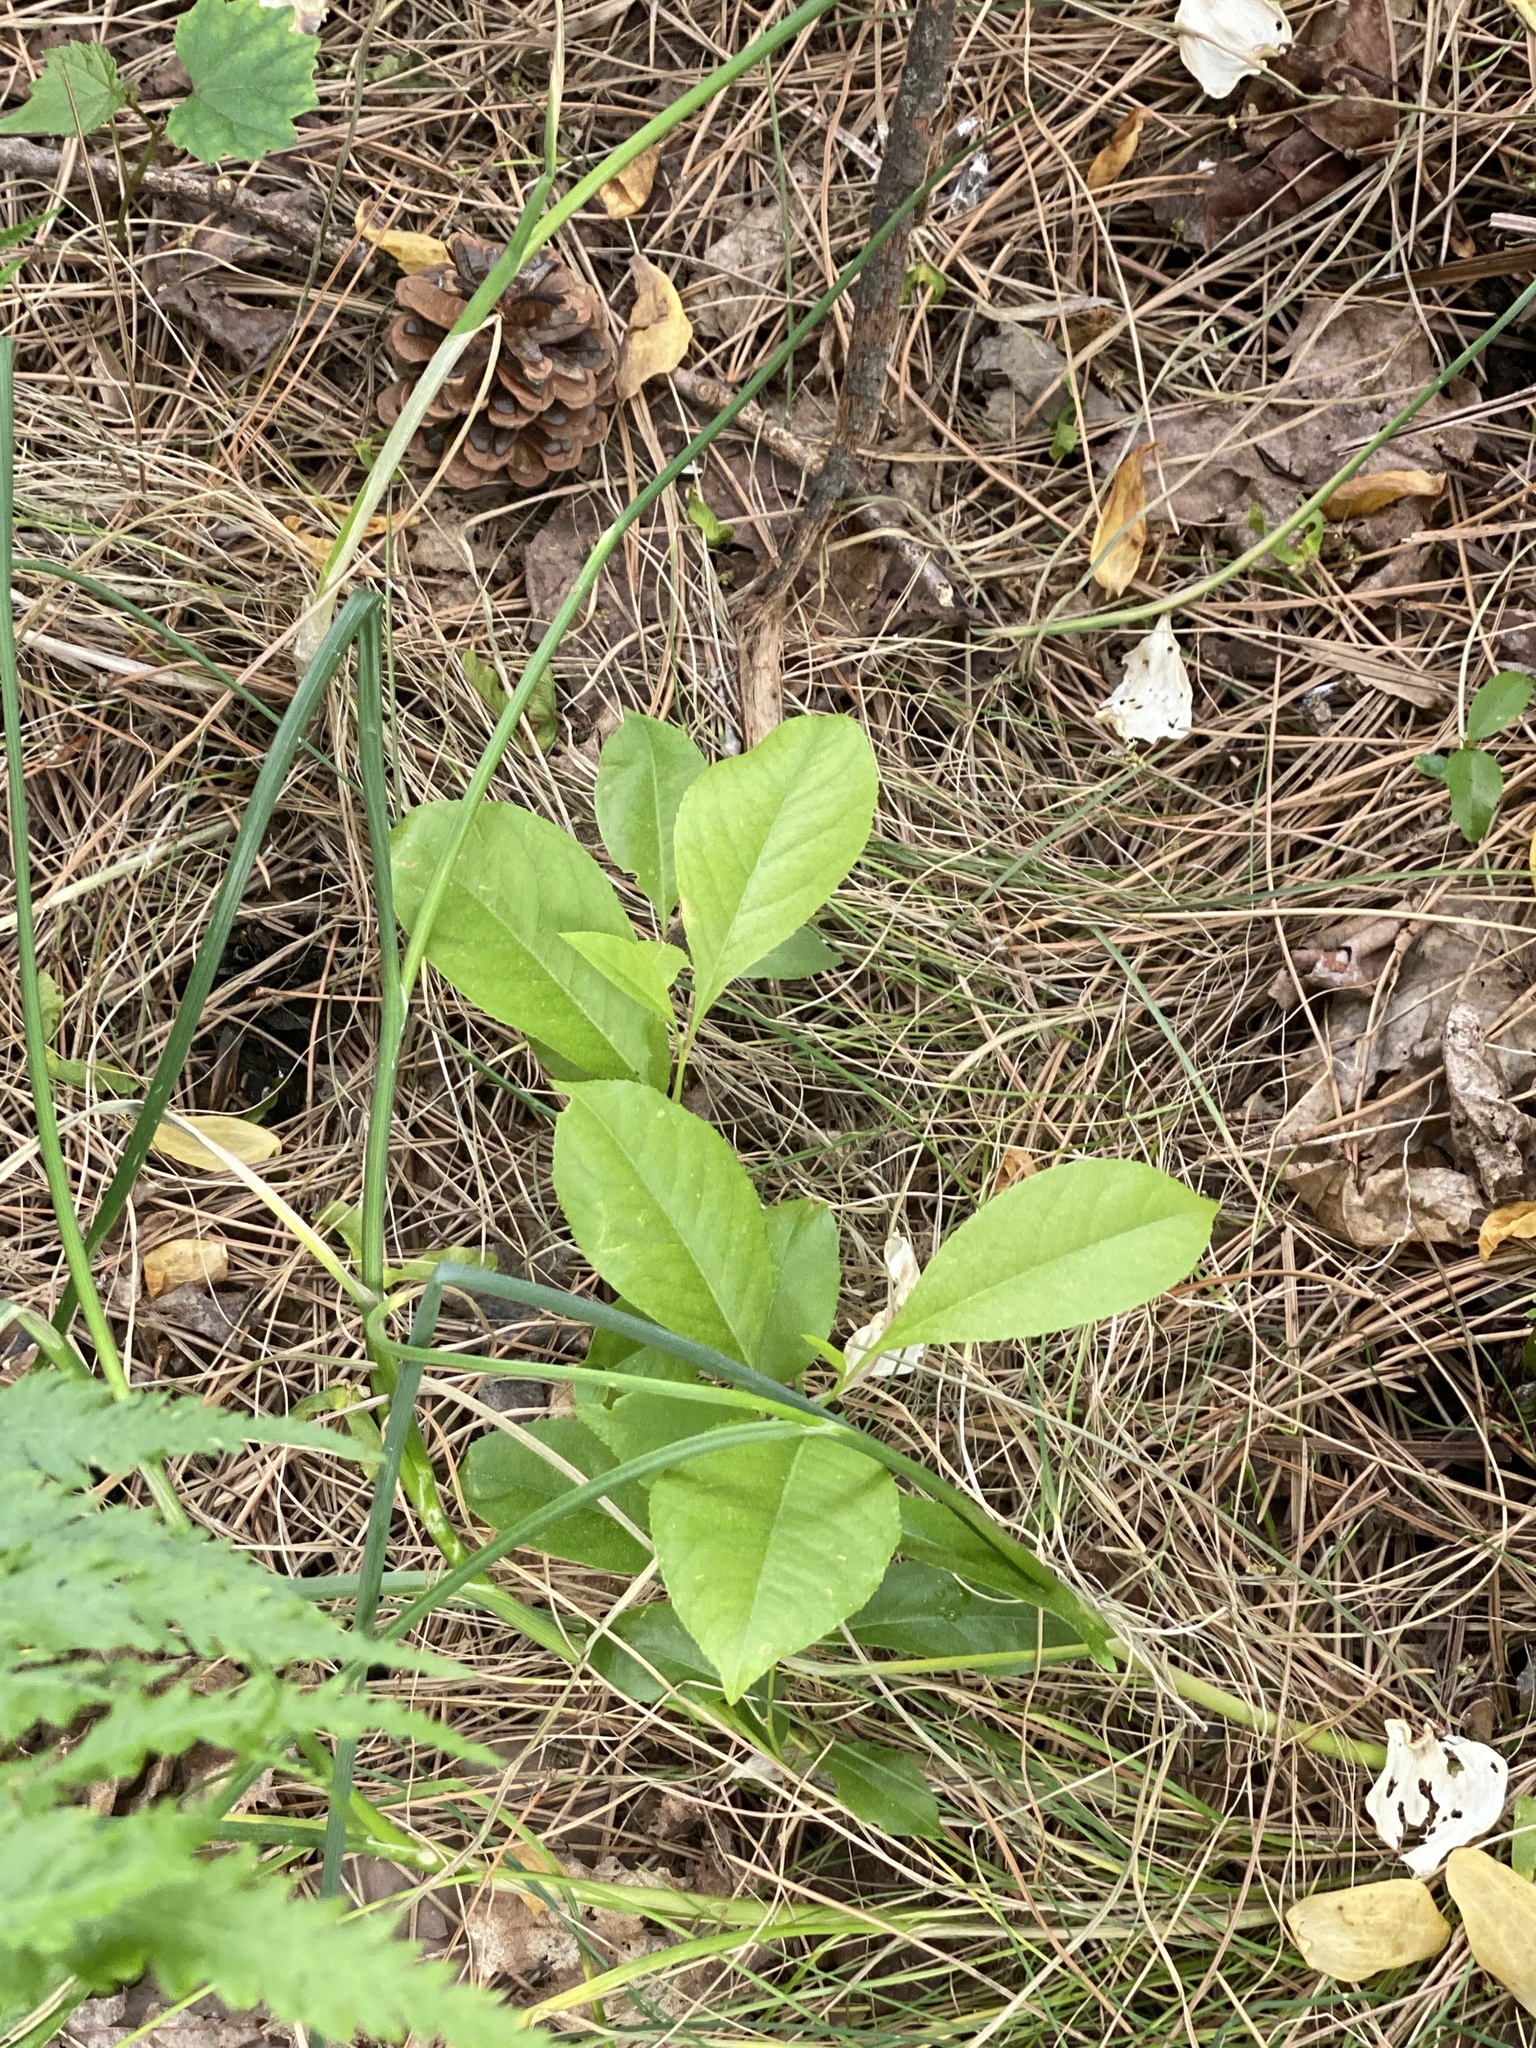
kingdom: Plantae
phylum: Tracheophyta
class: Magnoliopsida
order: Rosales
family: Rosaceae
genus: Prunus
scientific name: Prunus serotina
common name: Black cherry
